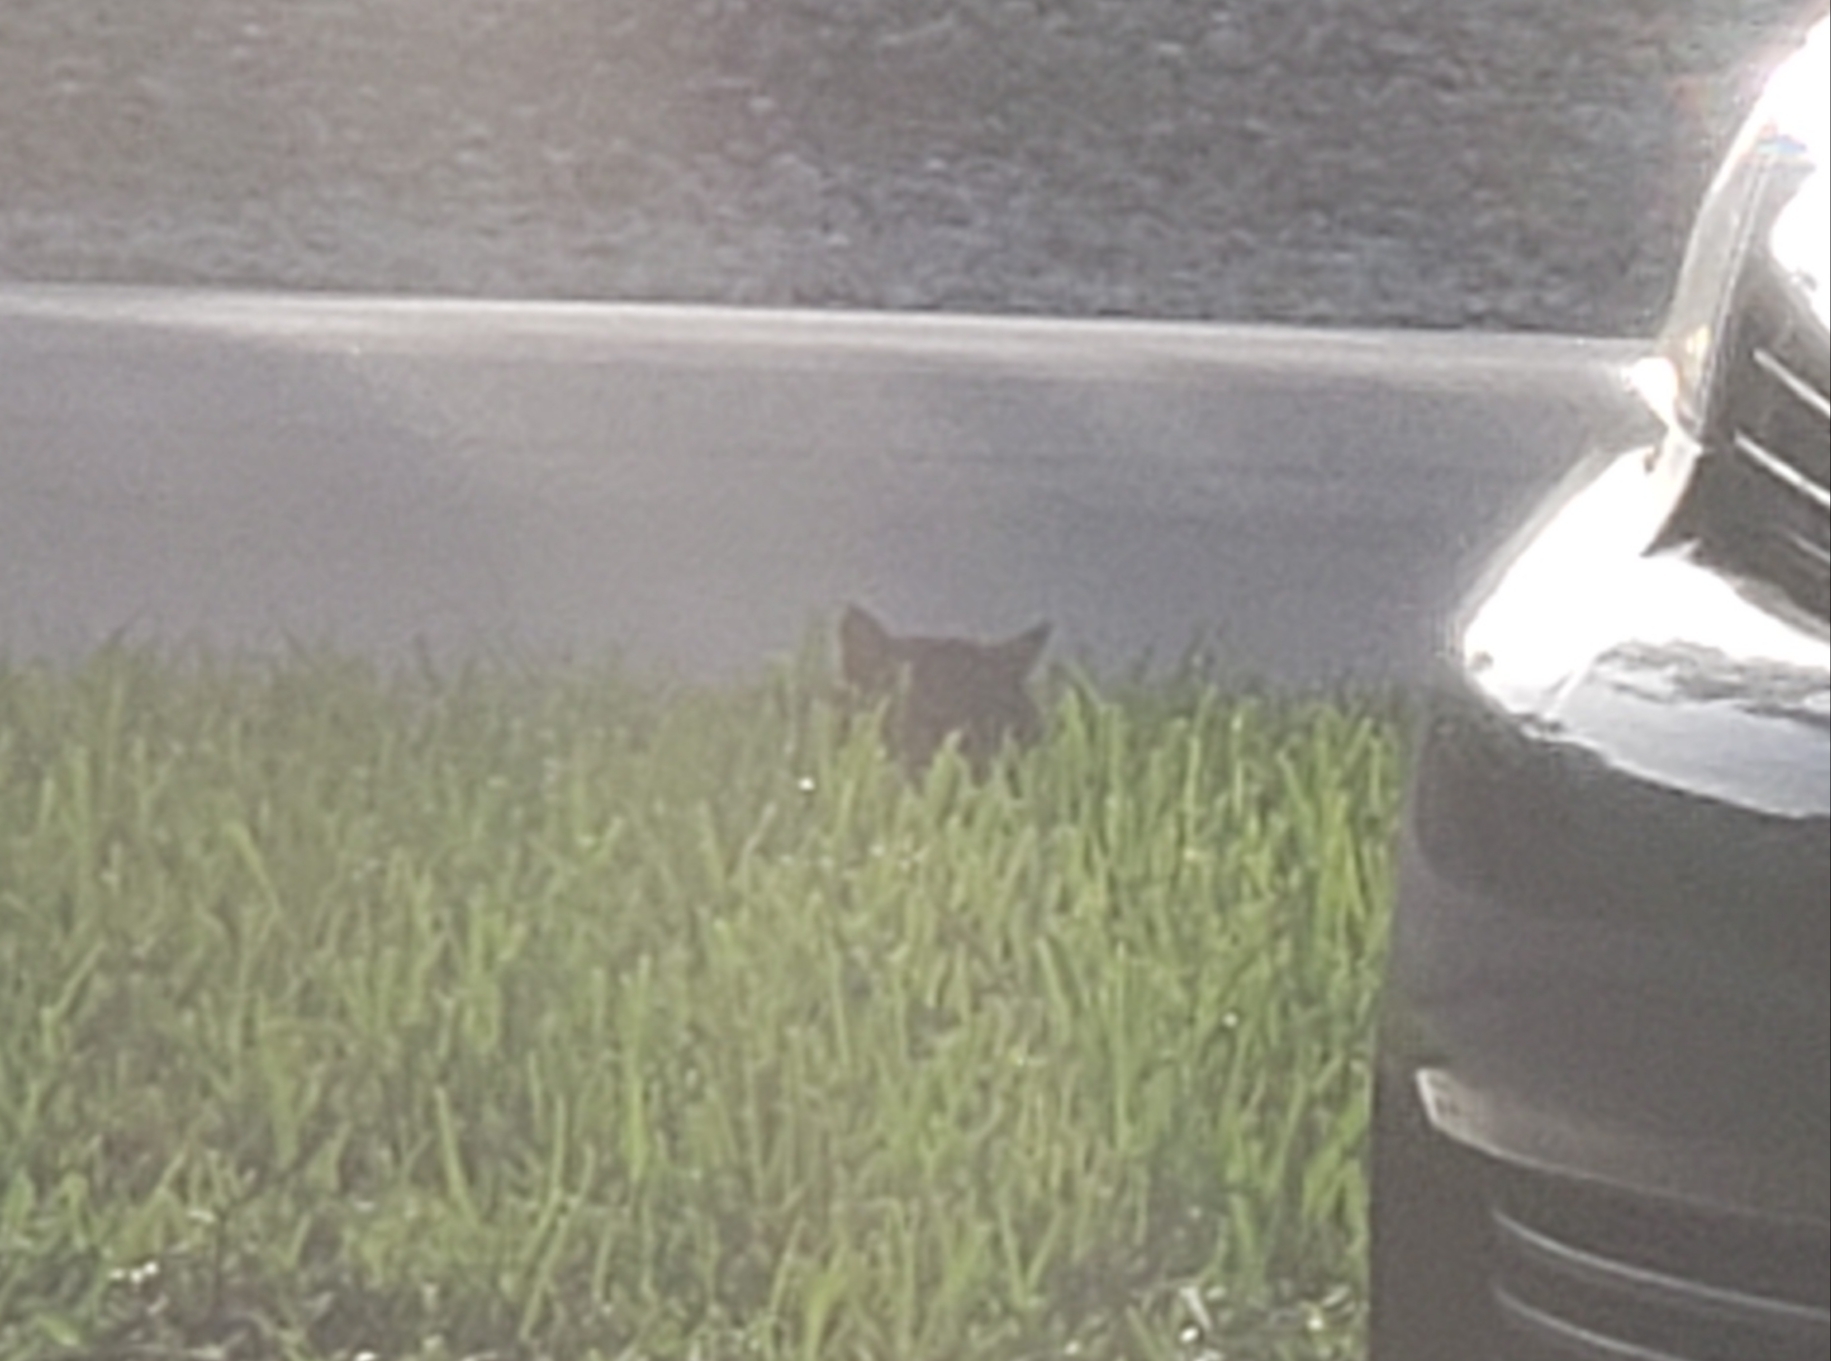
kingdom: Animalia
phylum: Chordata
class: Mammalia
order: Carnivora
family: Felidae
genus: Felis
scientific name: Felis catus
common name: Domestic cat
